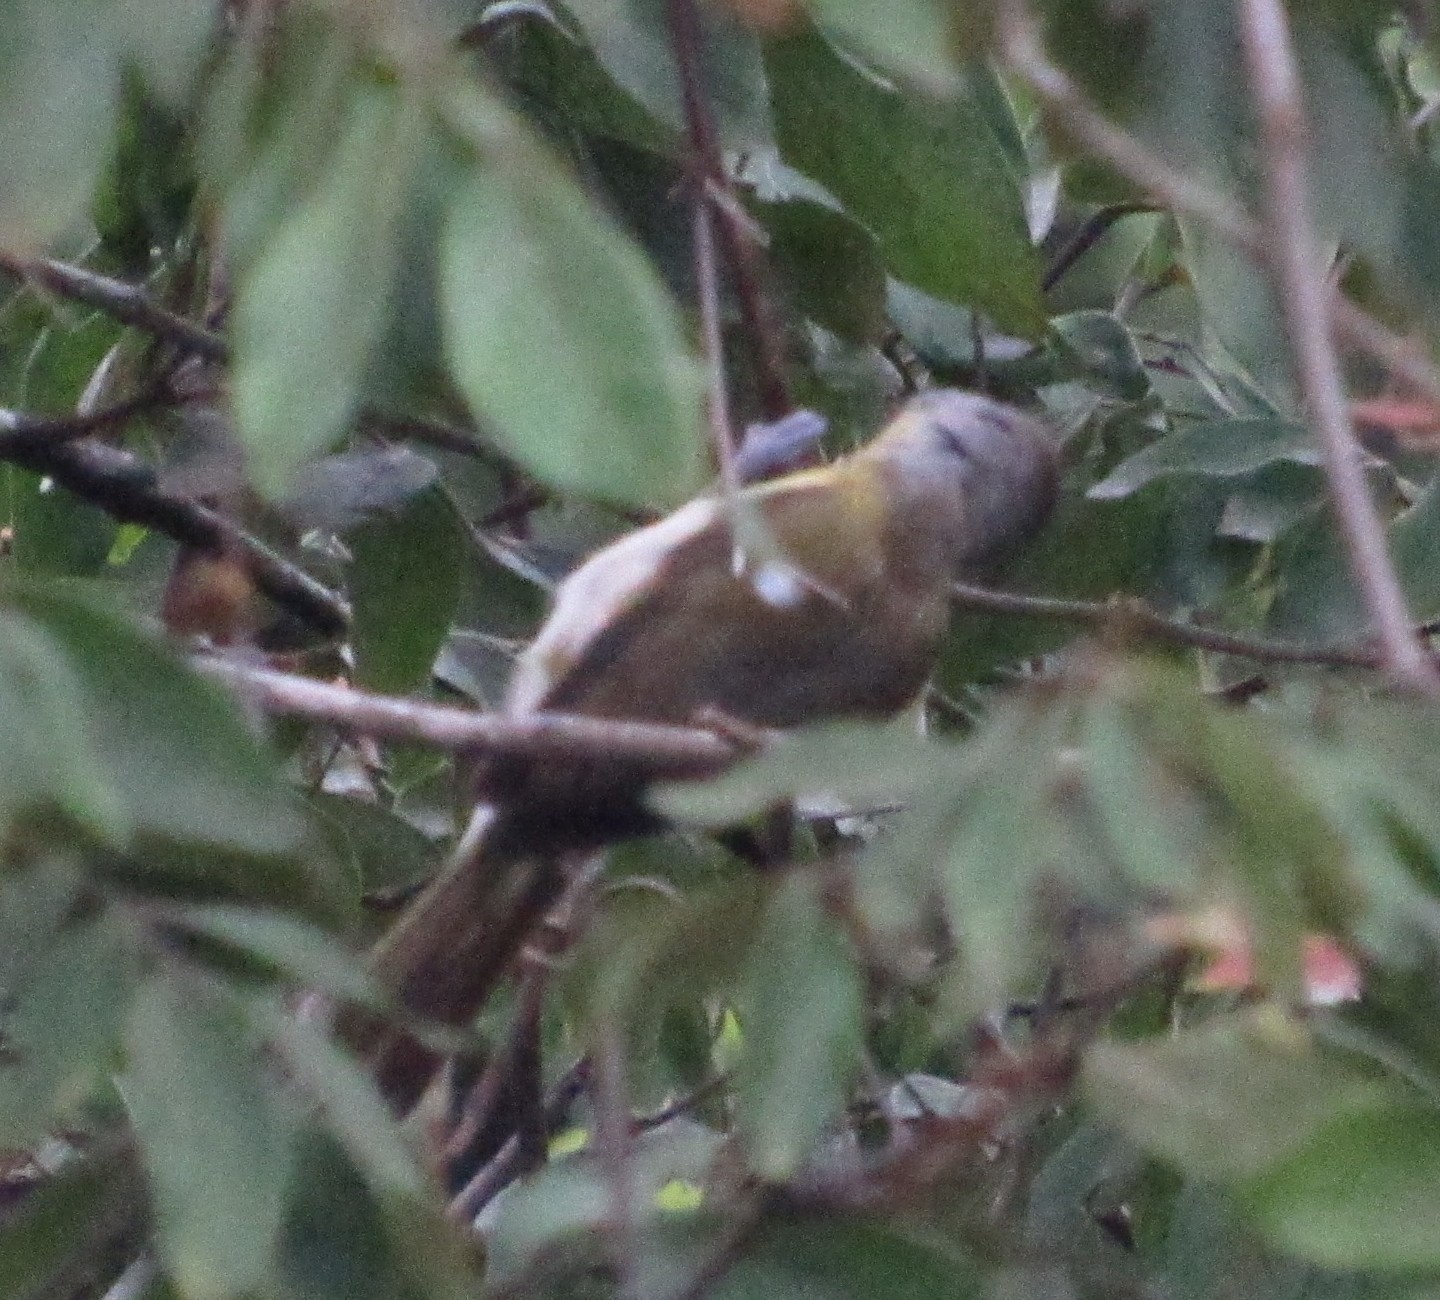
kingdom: Animalia
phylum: Chordata
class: Aves
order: Passeriformes
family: Vireonidae
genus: Cyclarhis
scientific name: Cyclarhis gujanensis
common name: Rufous-browed peppershrike
